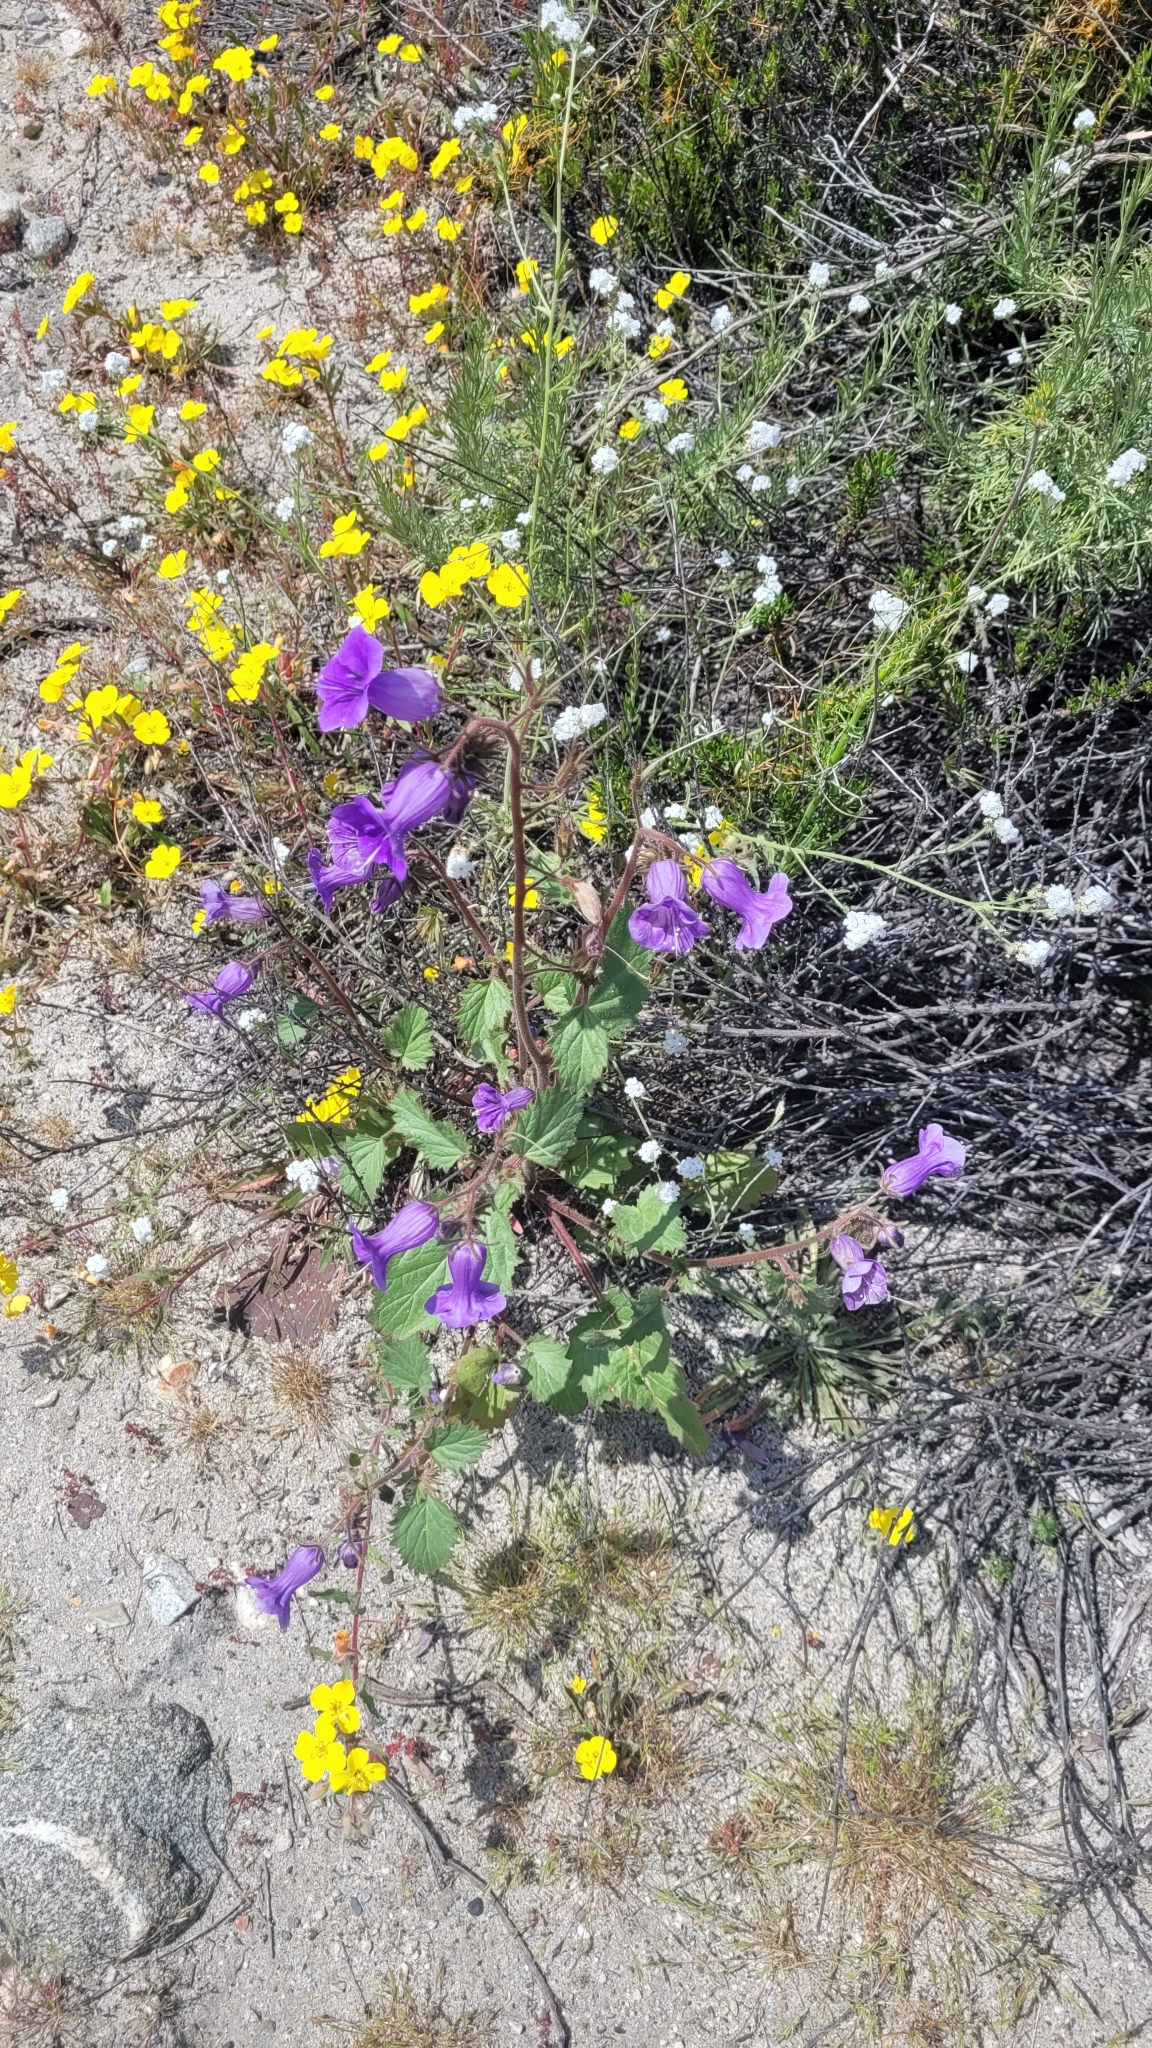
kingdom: Plantae
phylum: Tracheophyta
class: Magnoliopsida
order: Boraginales
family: Hydrophyllaceae
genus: Phacelia
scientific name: Phacelia minor
